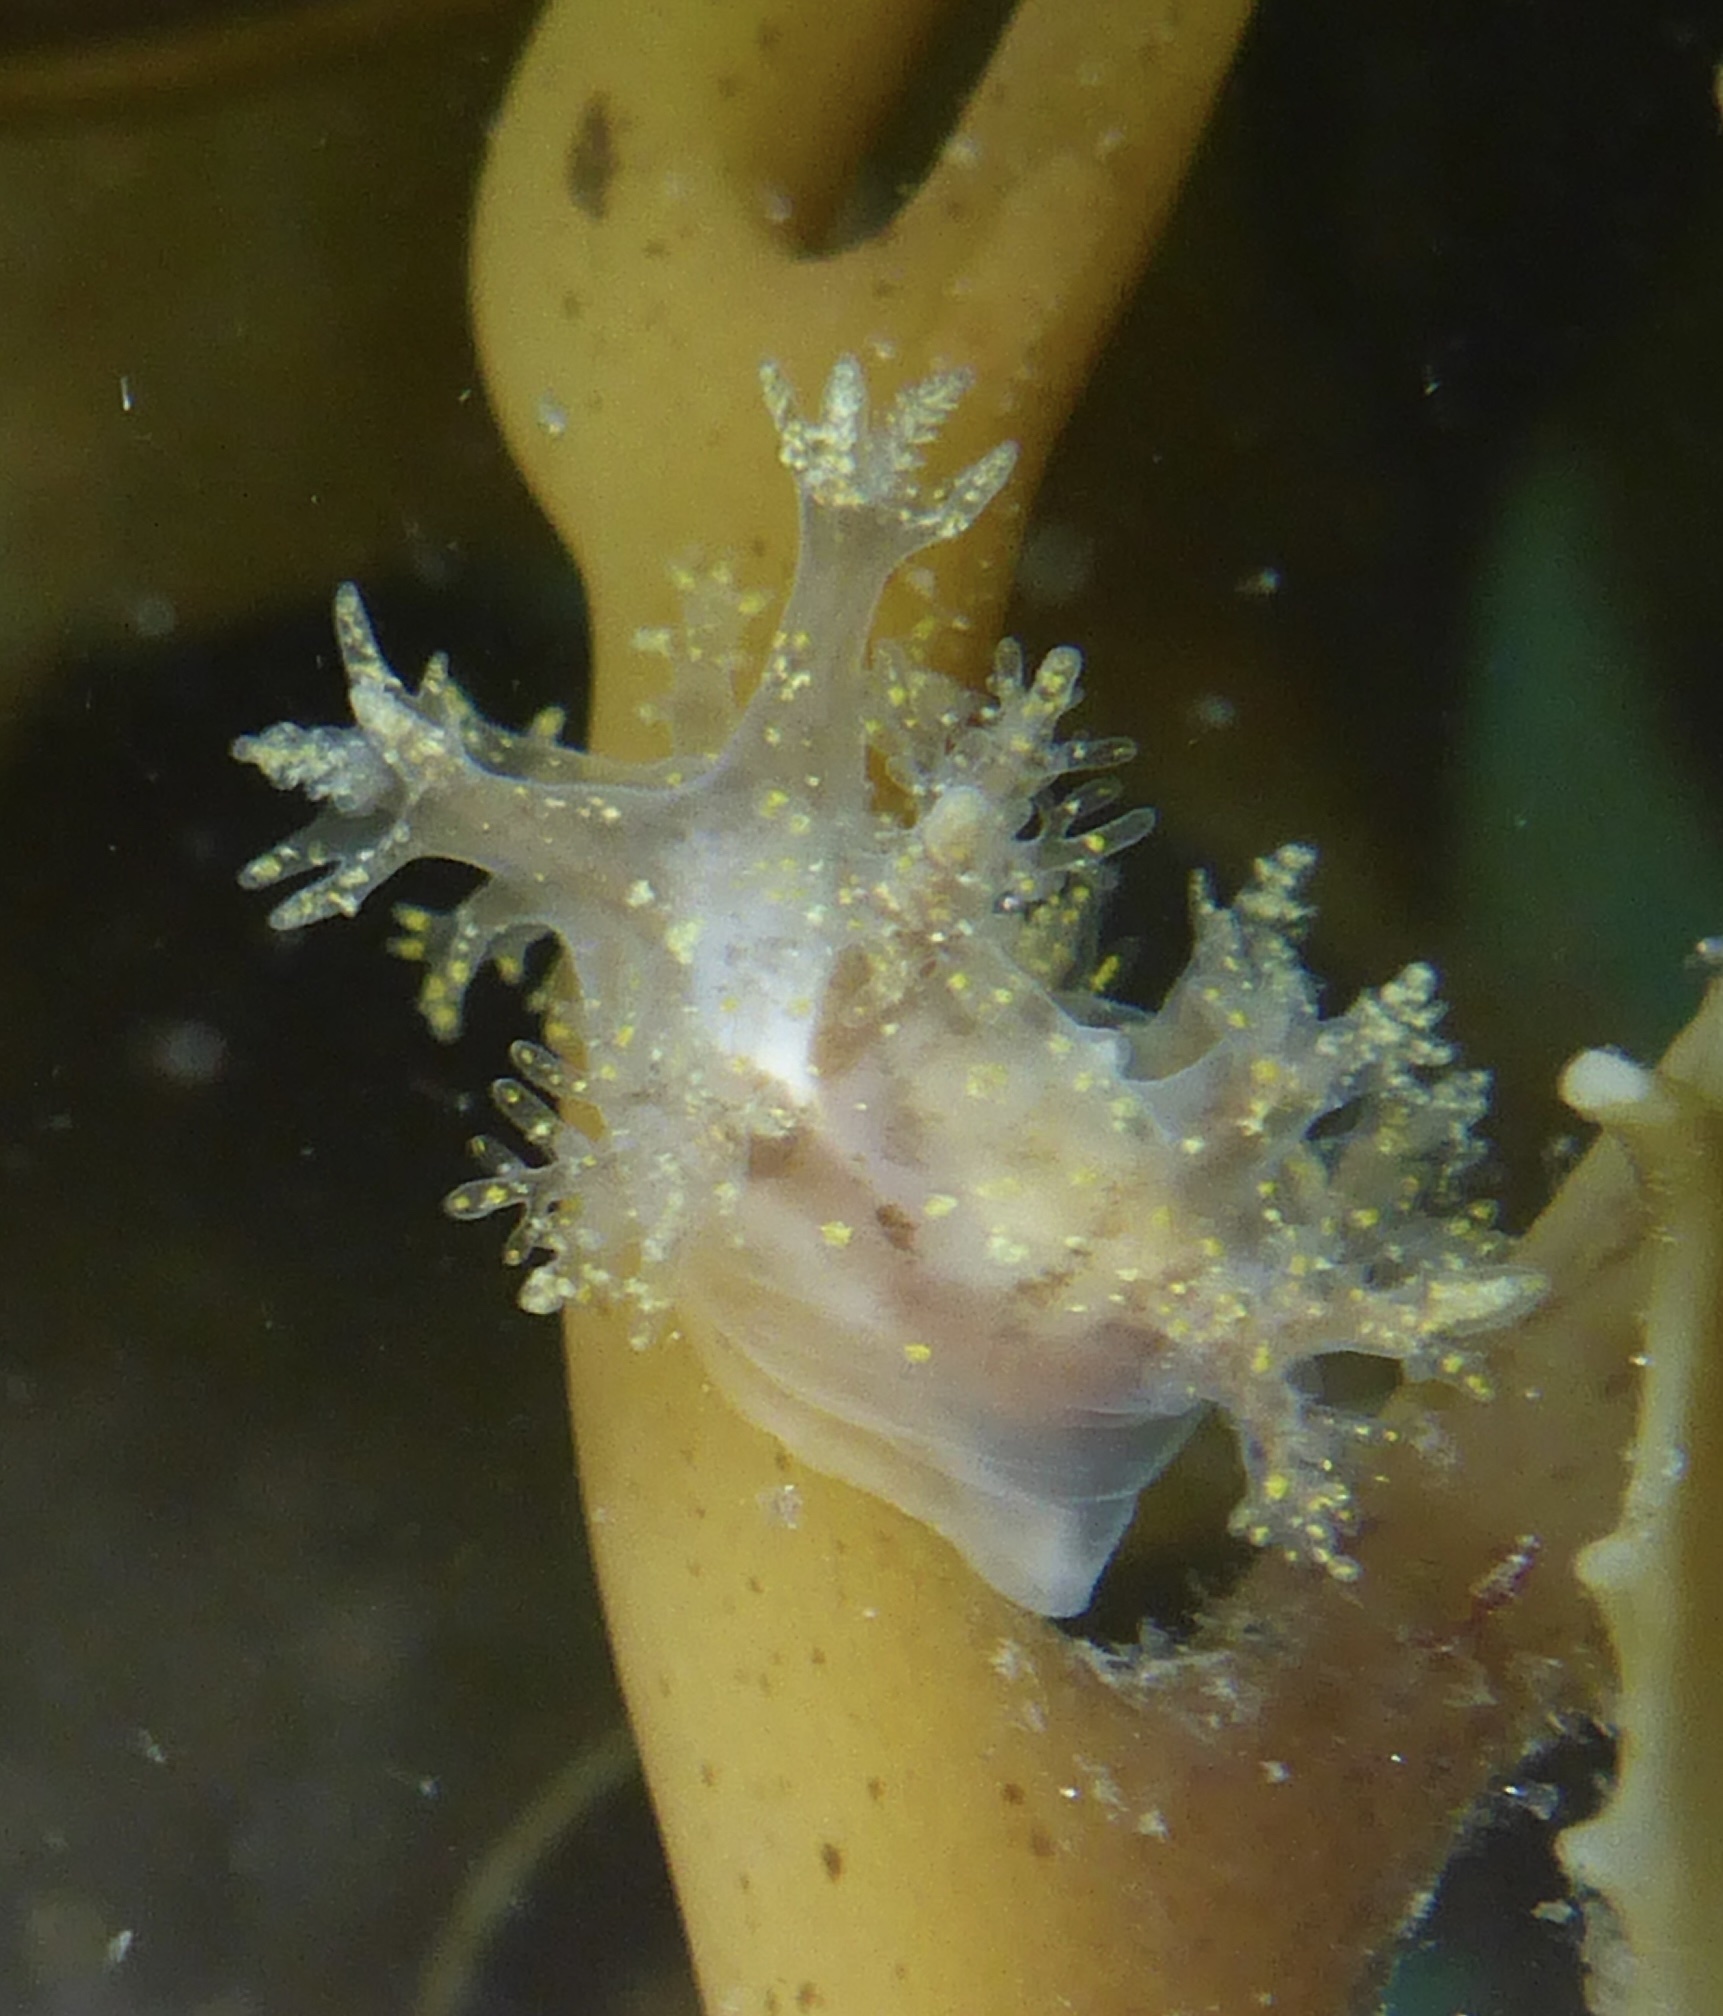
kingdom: Animalia
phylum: Mollusca
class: Gastropoda
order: Nudibranchia
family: Dendronotidae
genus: Dendronotus
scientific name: Dendronotus venustus
